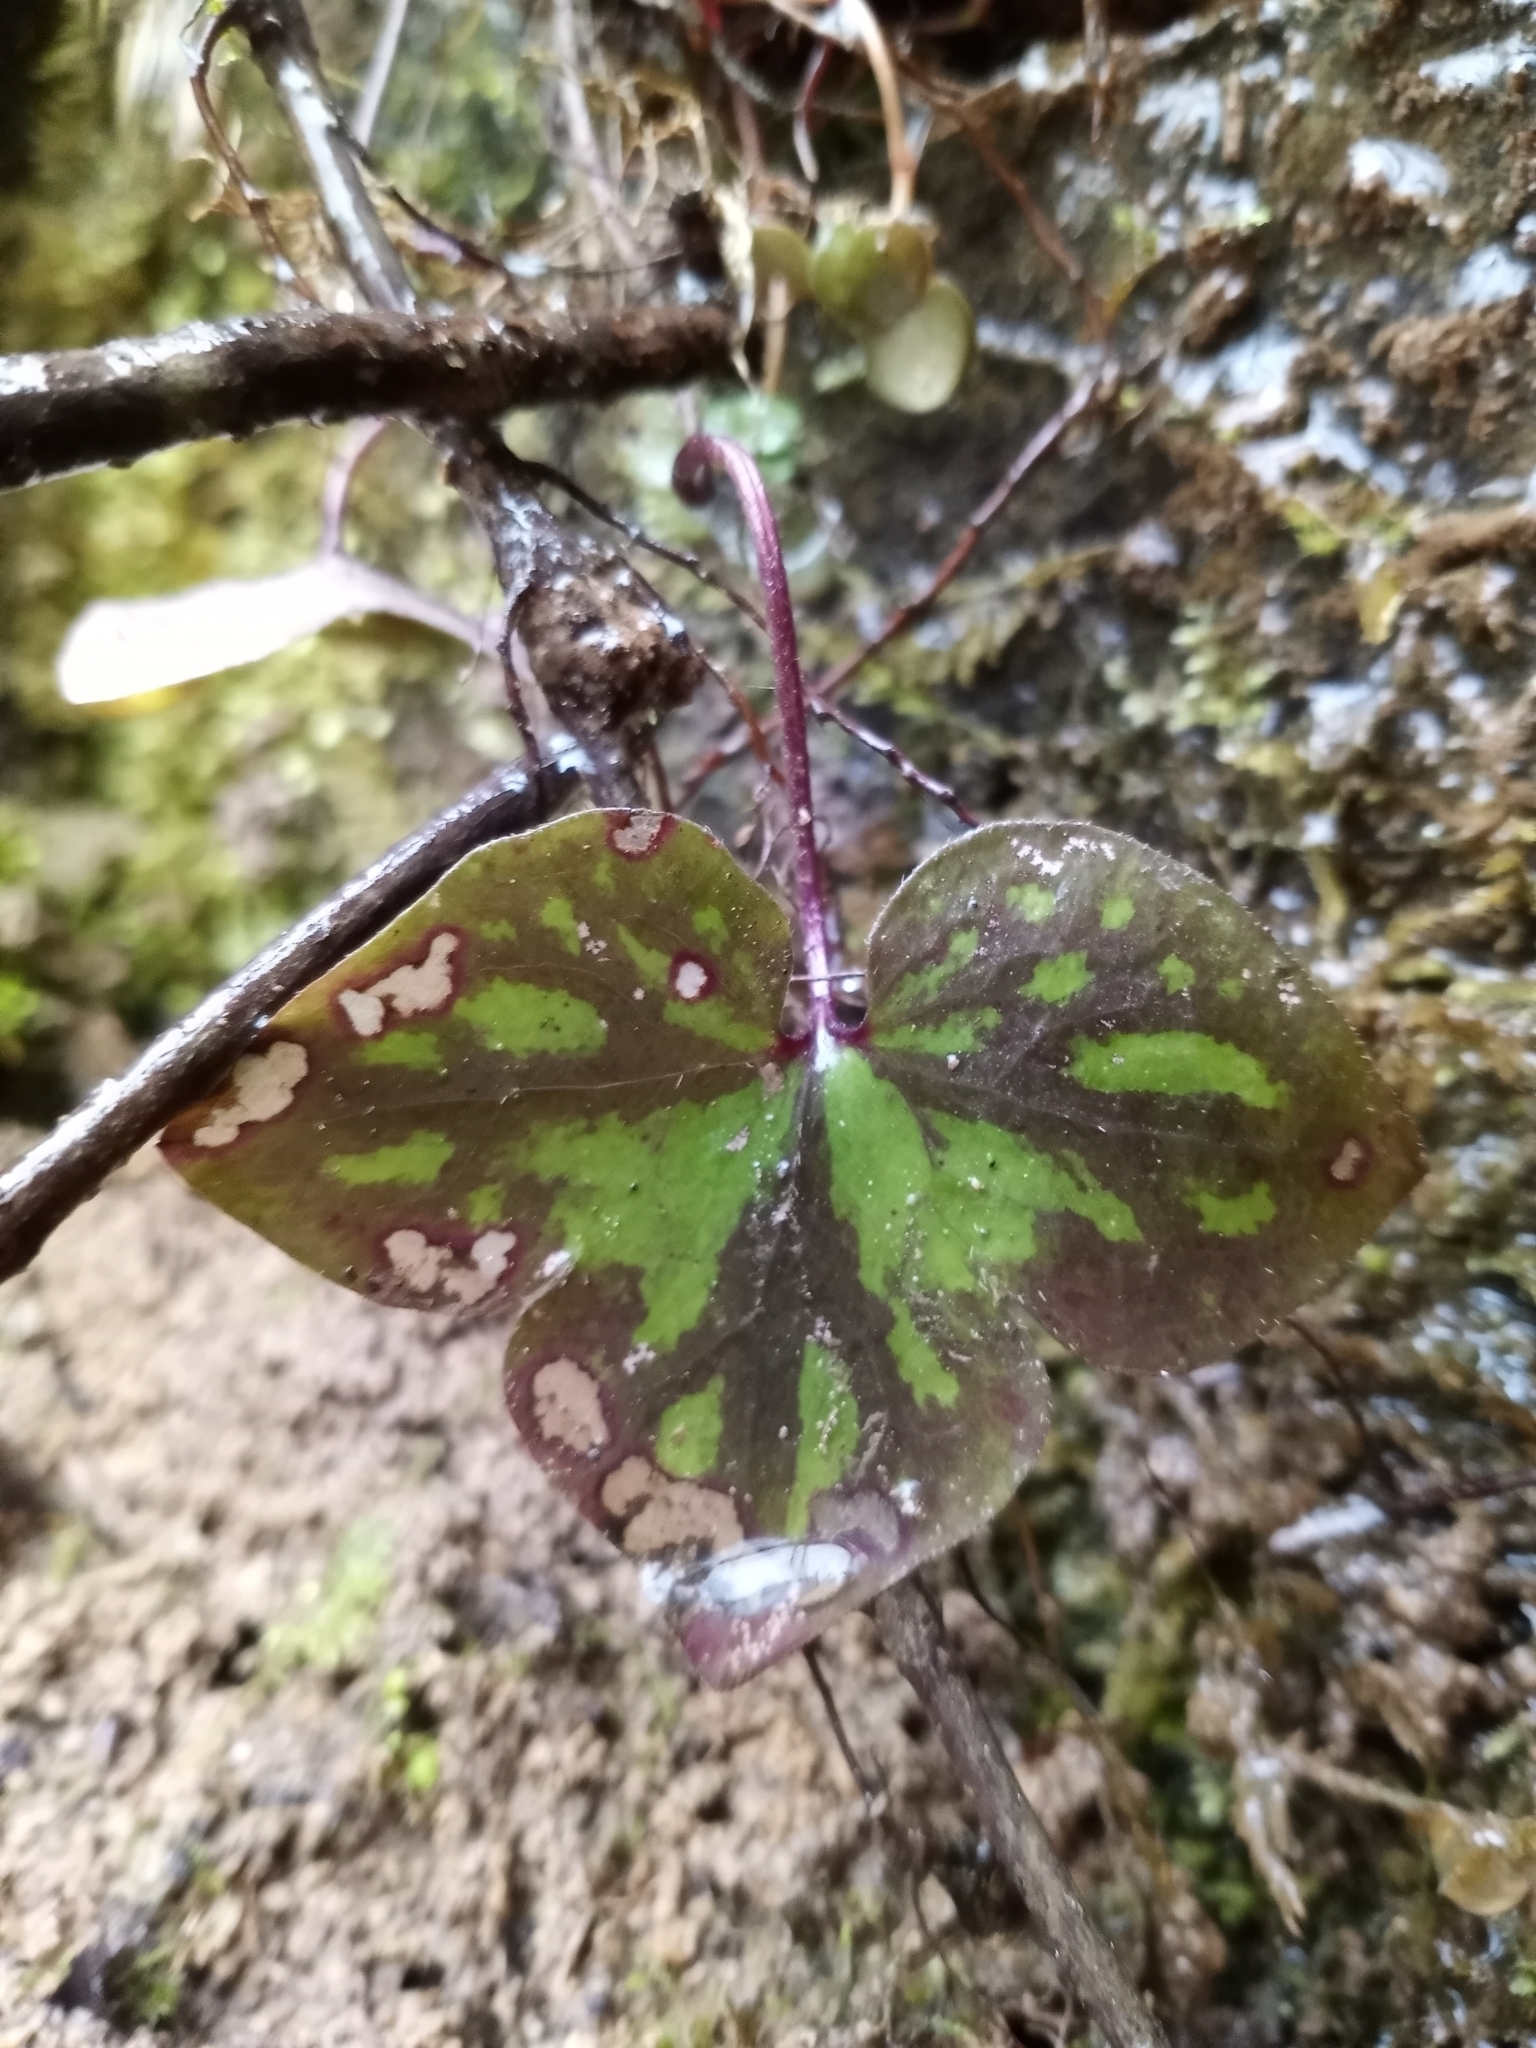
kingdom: Plantae
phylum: Tracheophyta
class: Magnoliopsida
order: Ranunculales
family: Ranunculaceae
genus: Hepatica
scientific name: Hepatica acutiloba
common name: Sharp-lobed hepatica
